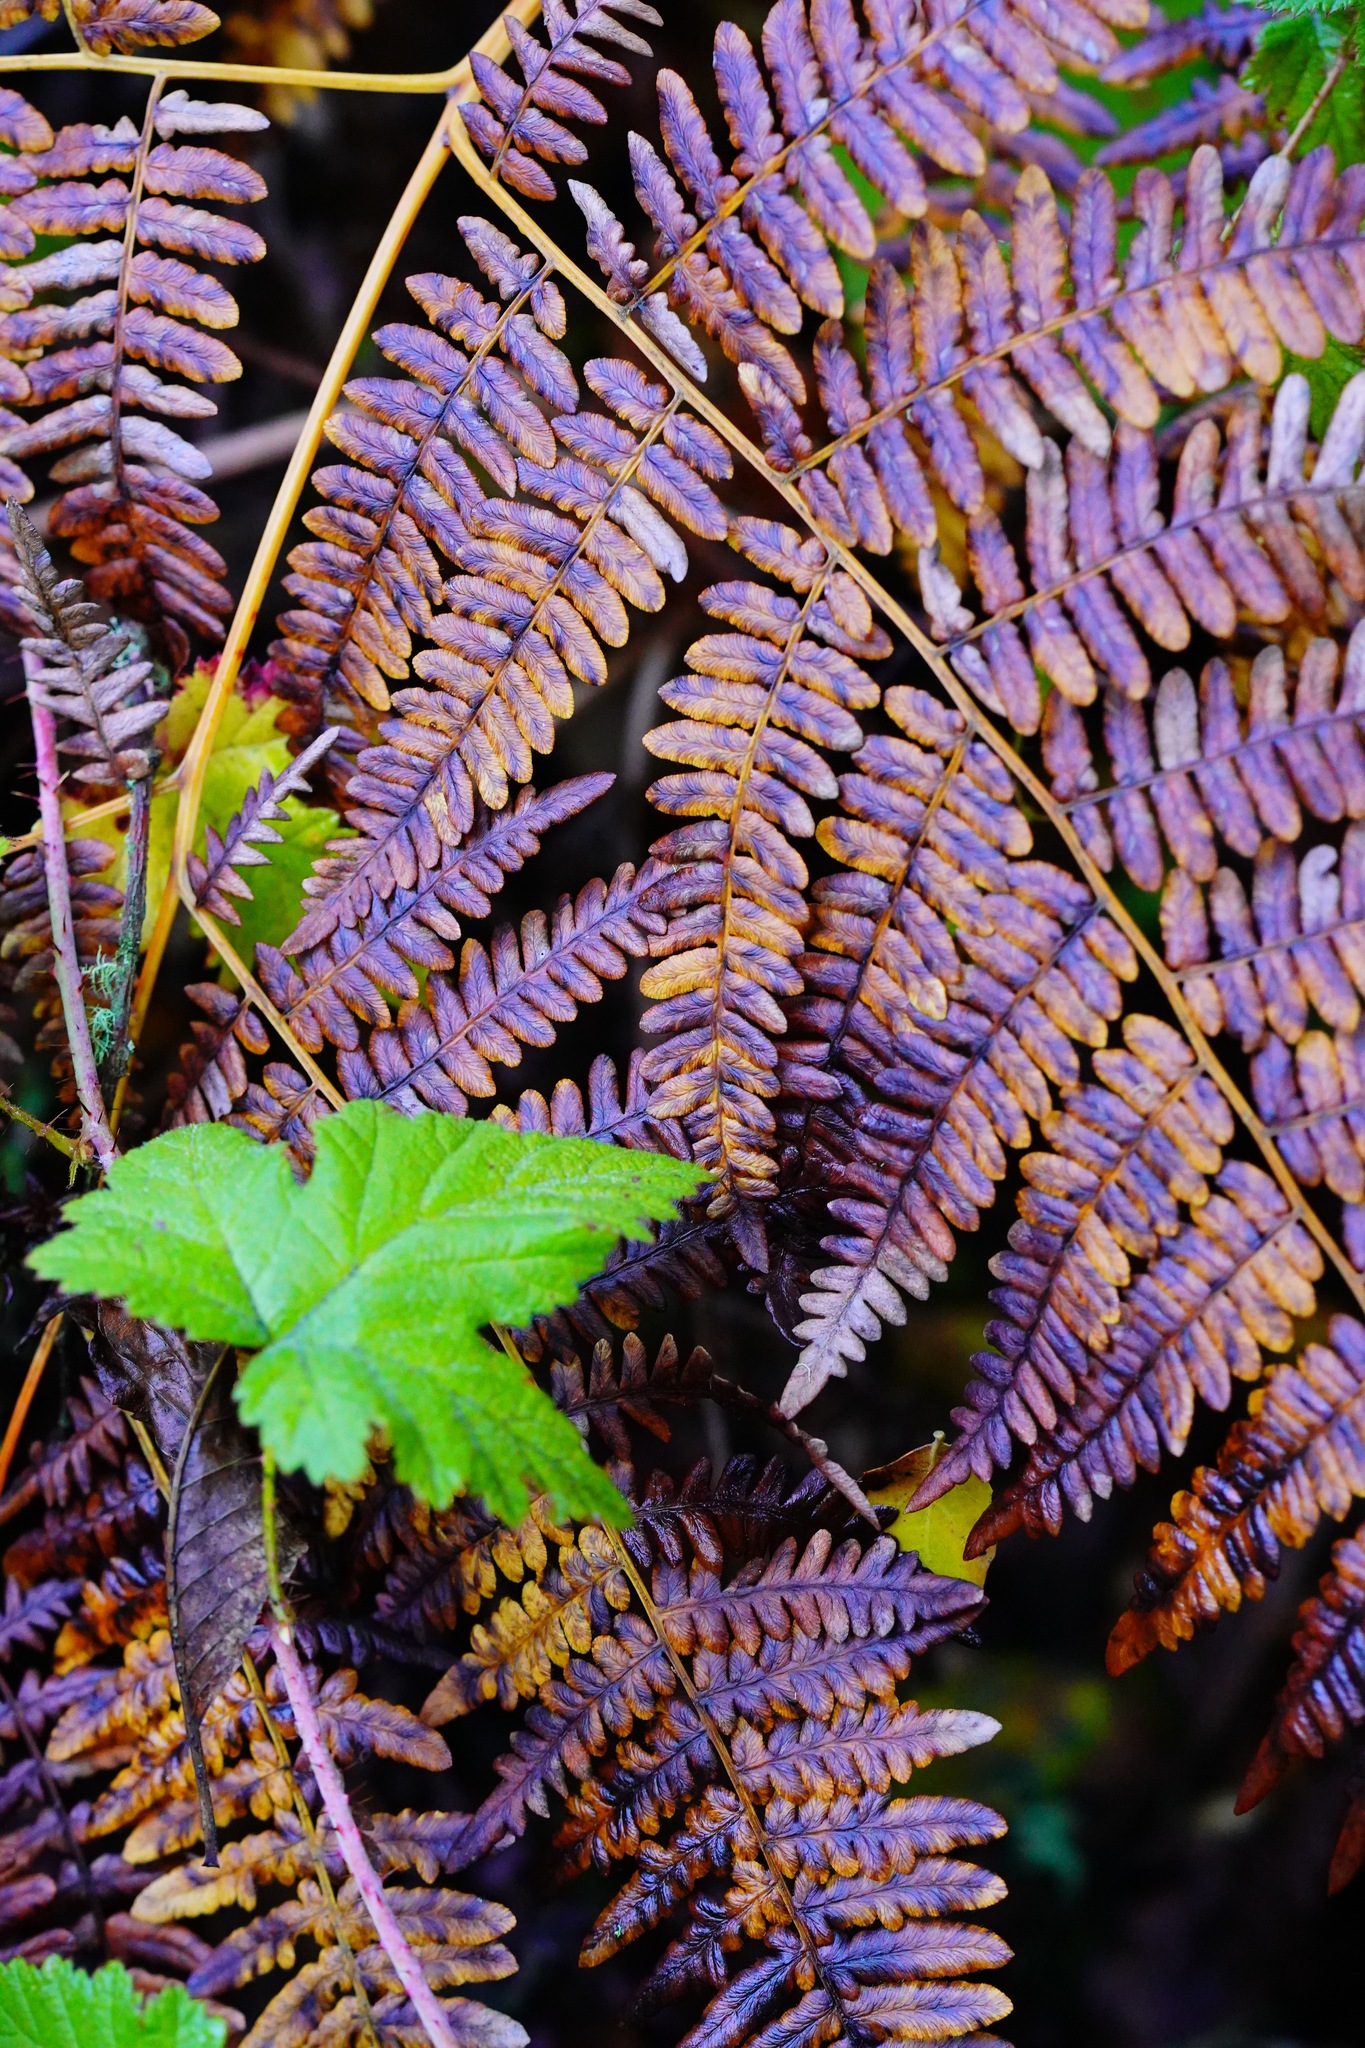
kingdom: Plantae
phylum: Tracheophyta
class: Polypodiopsida
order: Polypodiales
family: Dennstaedtiaceae
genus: Pteridium
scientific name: Pteridium aquilinum
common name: Bracken
